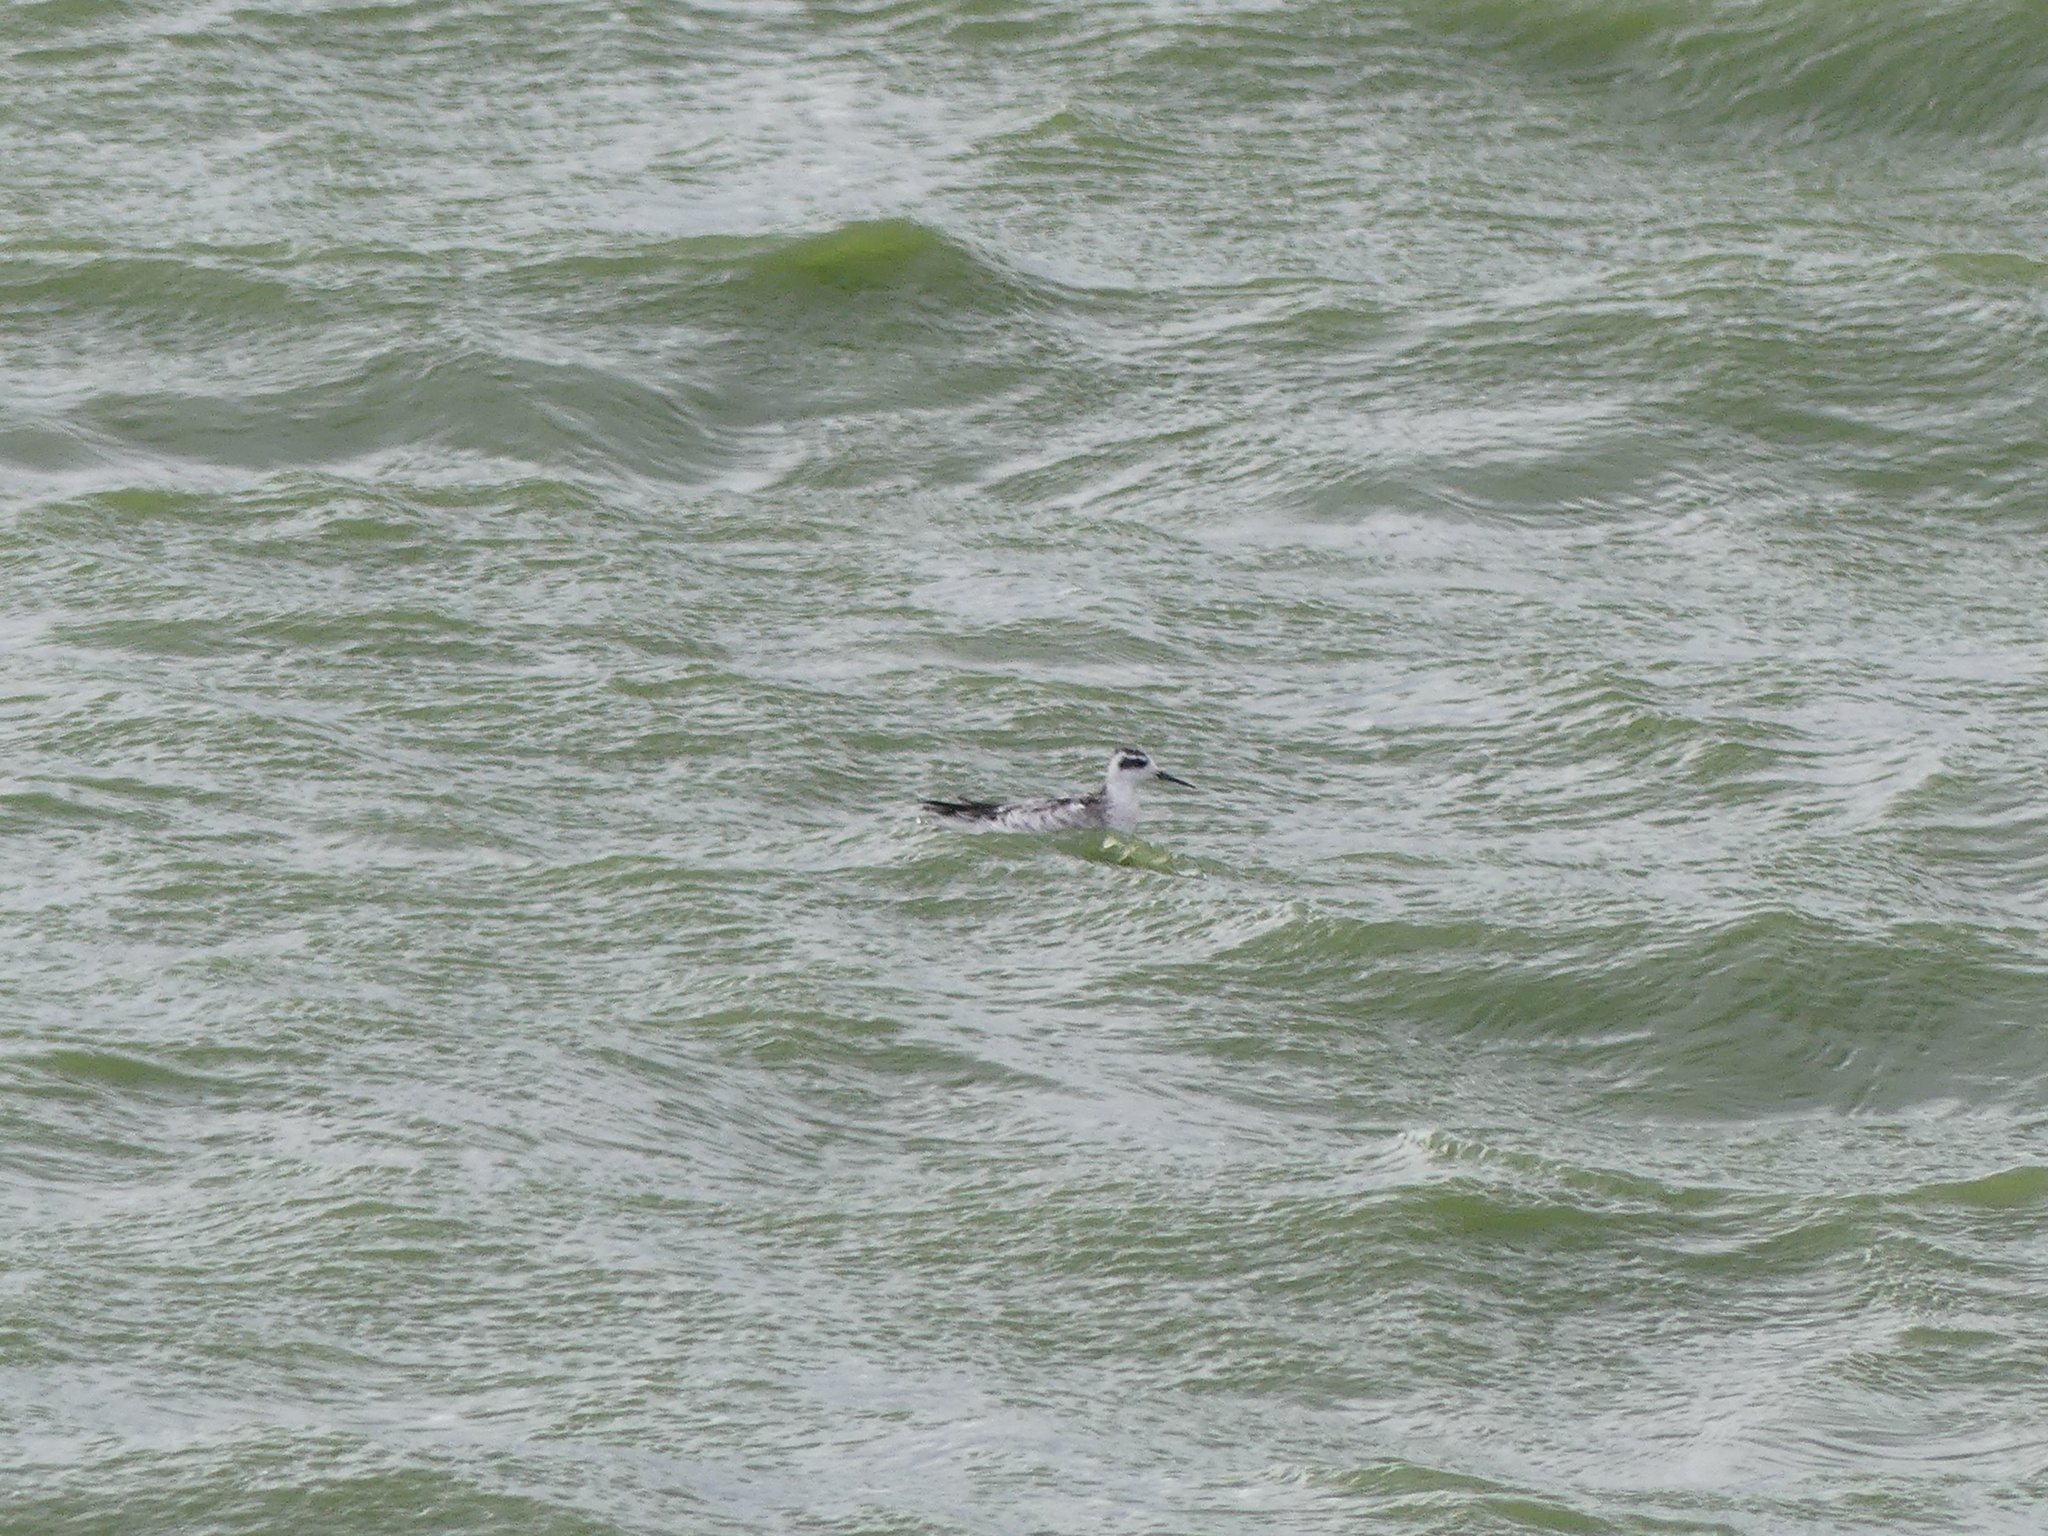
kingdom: Animalia
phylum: Chordata
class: Aves
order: Charadriiformes
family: Scolopacidae
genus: Phalaropus
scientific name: Phalaropus lobatus
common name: Red-necked phalarope
